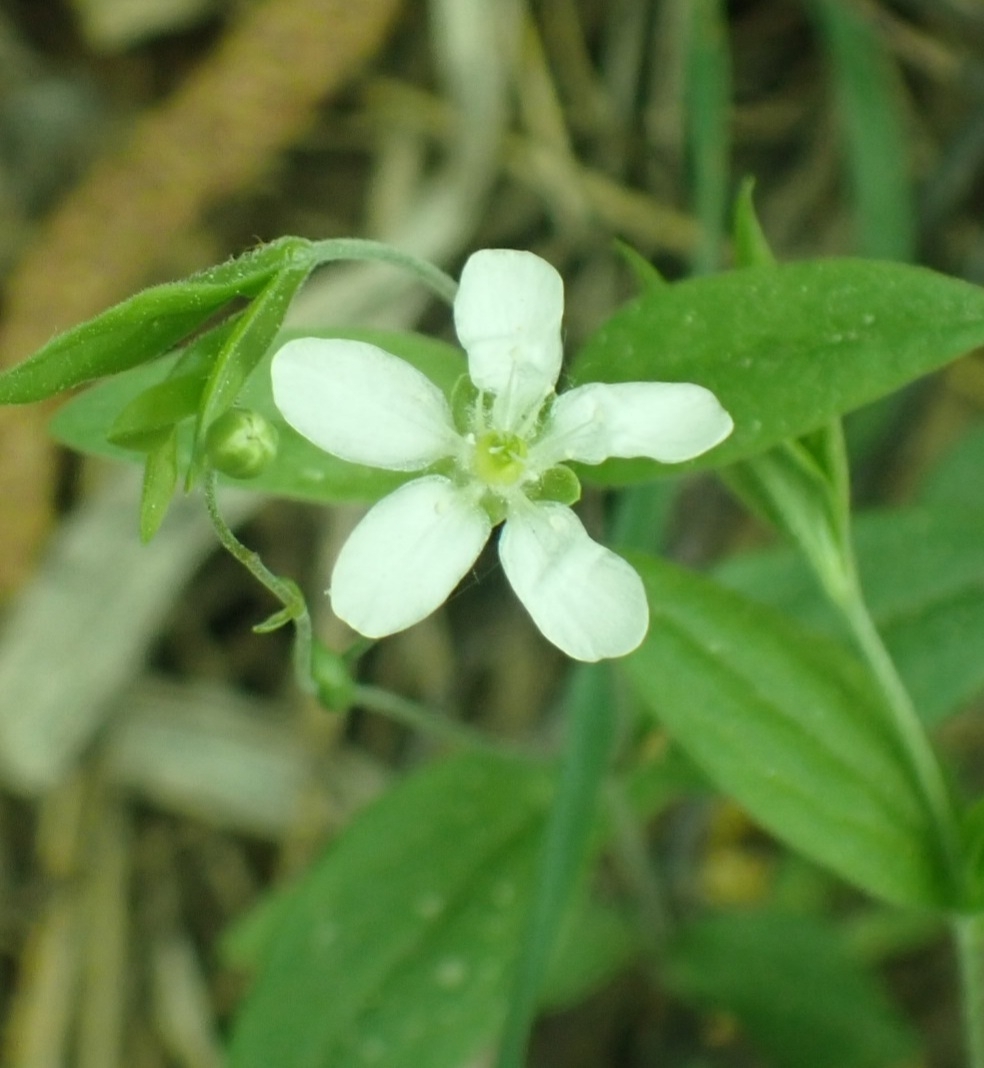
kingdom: Plantae
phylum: Tracheophyta
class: Magnoliopsida
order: Caryophyllales
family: Caryophyllaceae
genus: Moehringia
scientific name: Moehringia lateriflora
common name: Blunt-leaved sandwort
